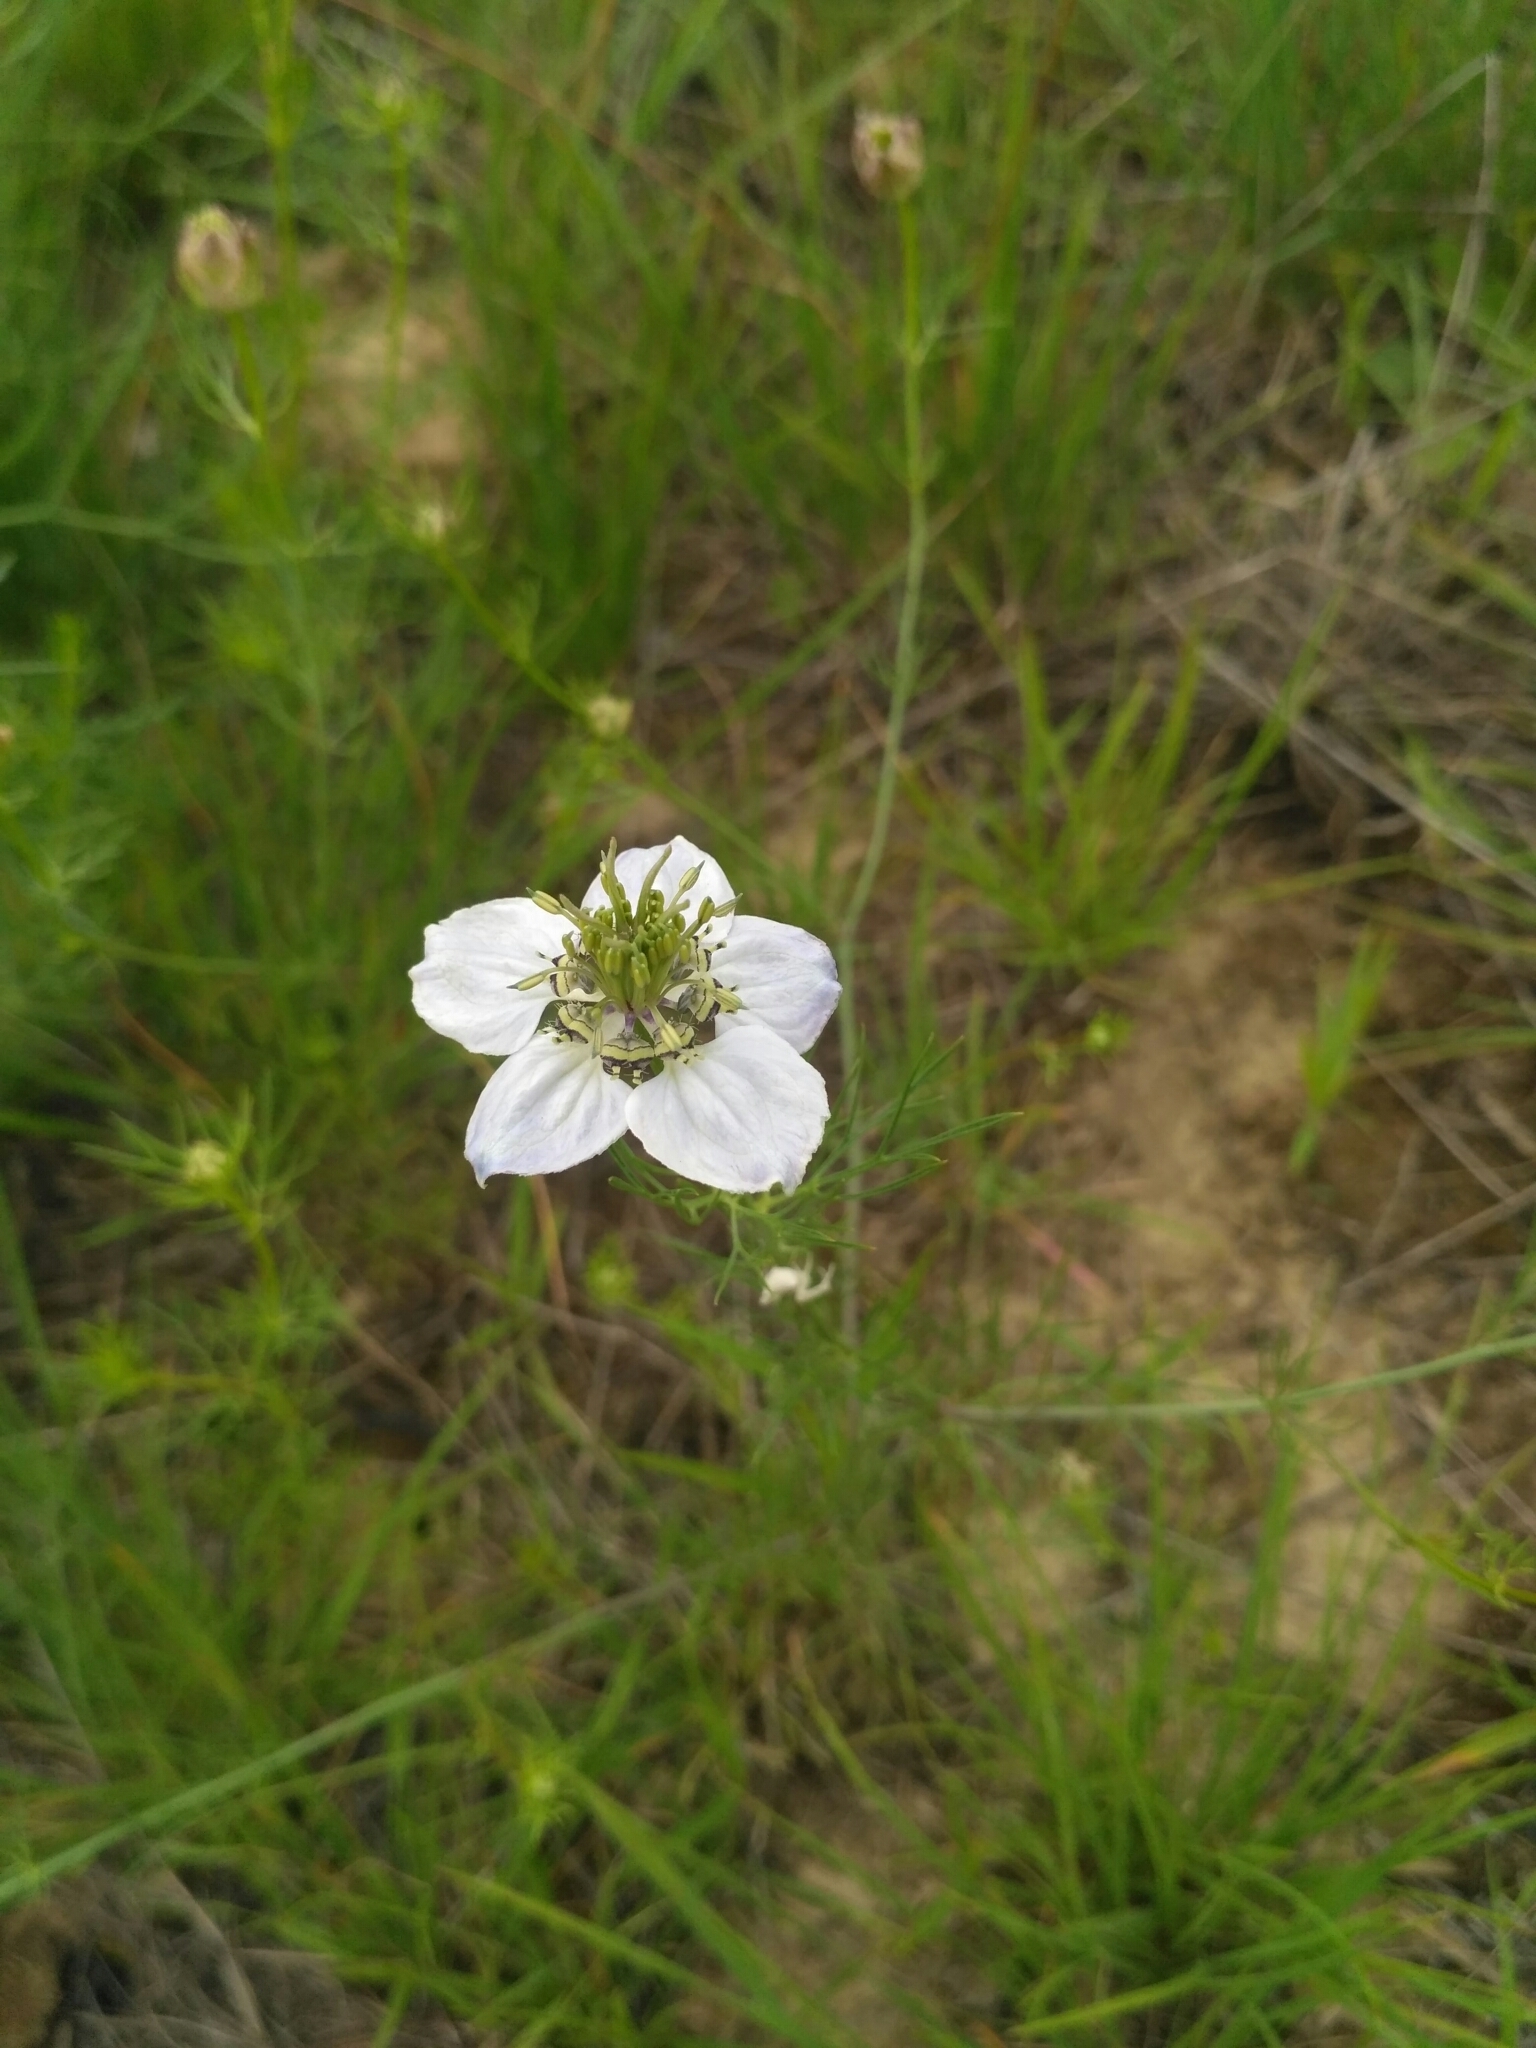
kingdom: Plantae
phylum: Tracheophyta
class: Magnoliopsida
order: Ranunculales
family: Ranunculaceae
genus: Nigella
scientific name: Nigella arvensis
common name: Wild fennel-flower
